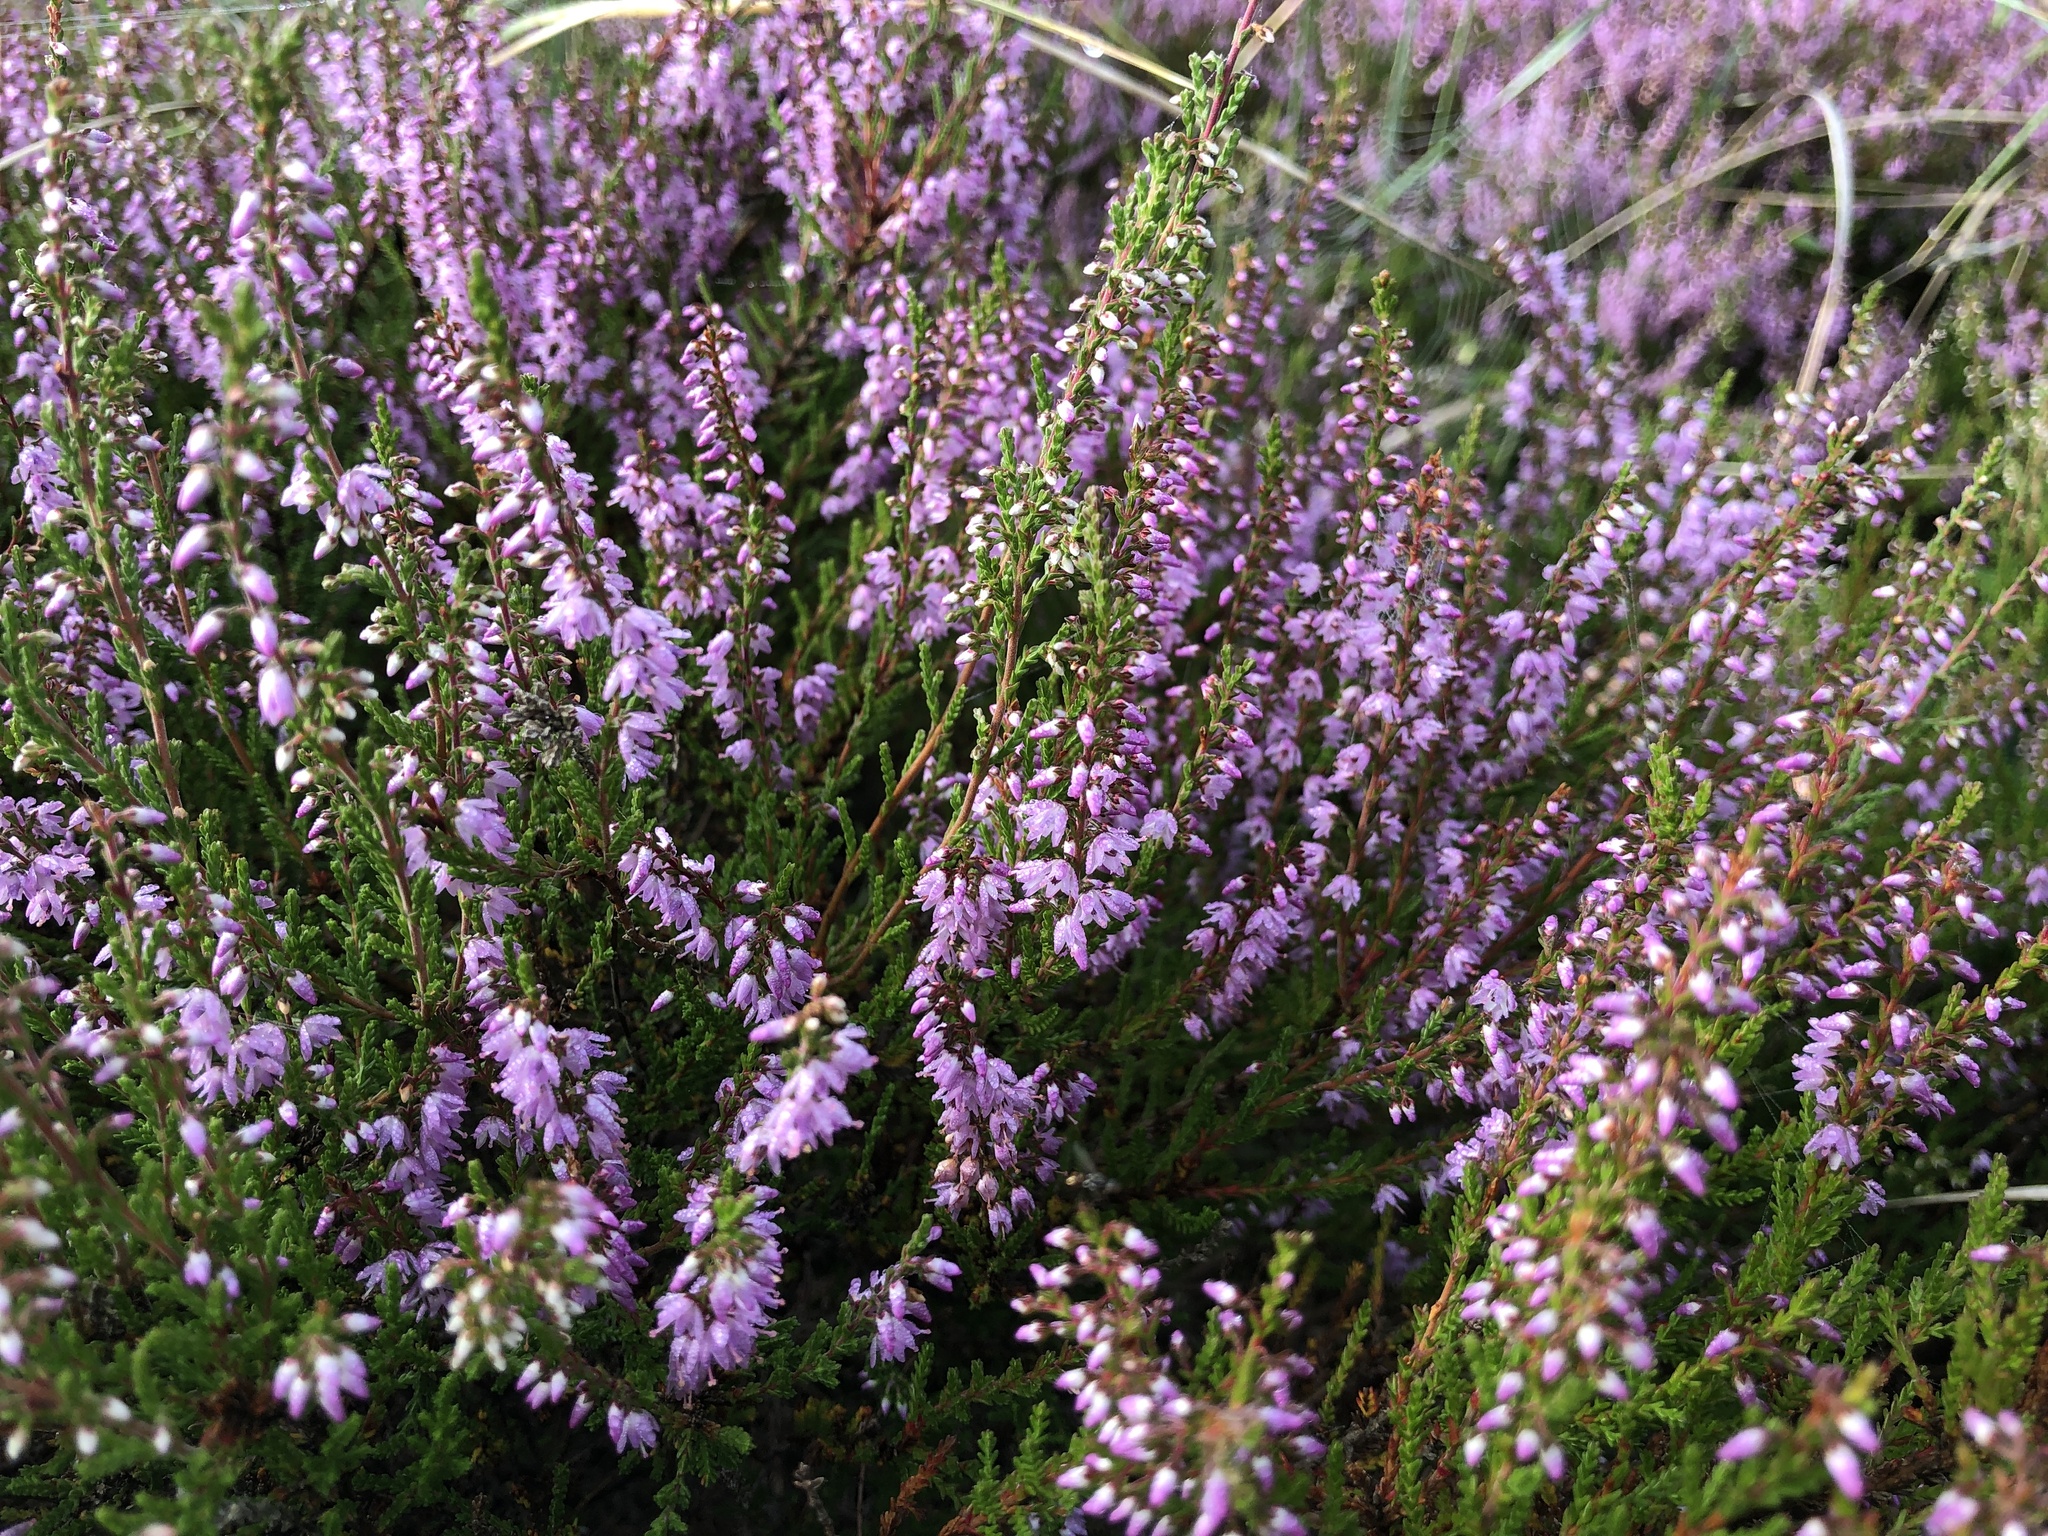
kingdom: Plantae
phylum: Tracheophyta
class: Magnoliopsida
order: Ericales
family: Ericaceae
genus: Calluna
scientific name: Calluna vulgaris
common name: Heather
